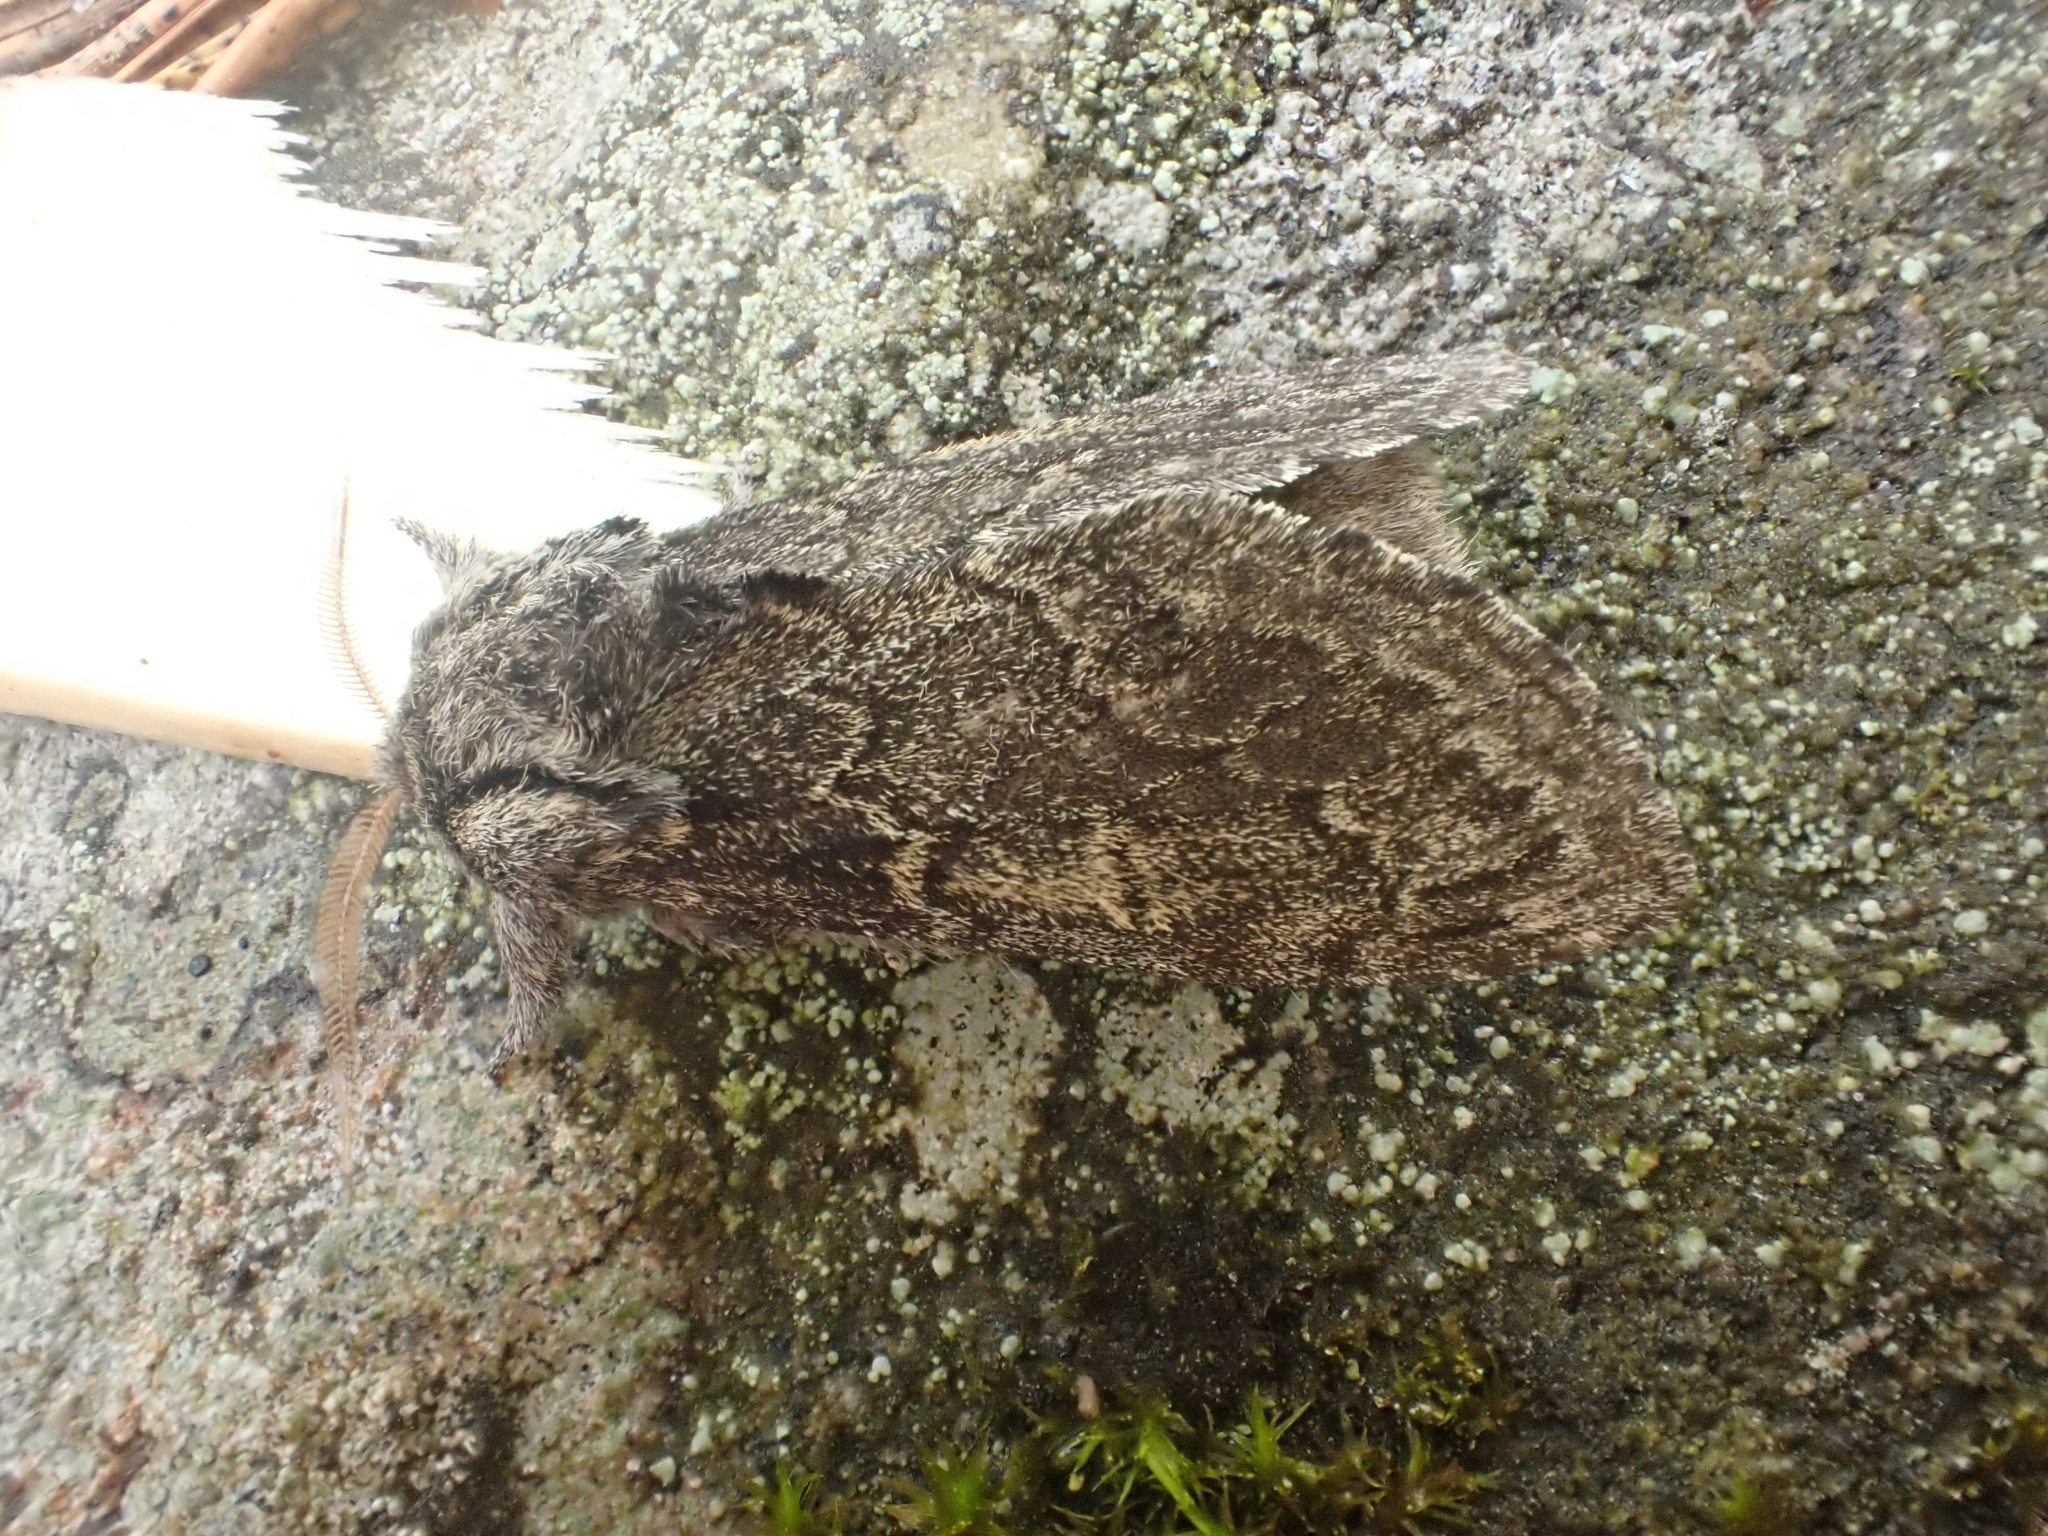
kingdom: Animalia
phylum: Arthropoda
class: Insecta
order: Lepidoptera
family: Notodontidae
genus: Notodonta
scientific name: Notodonta torva
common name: Large dark prominent
